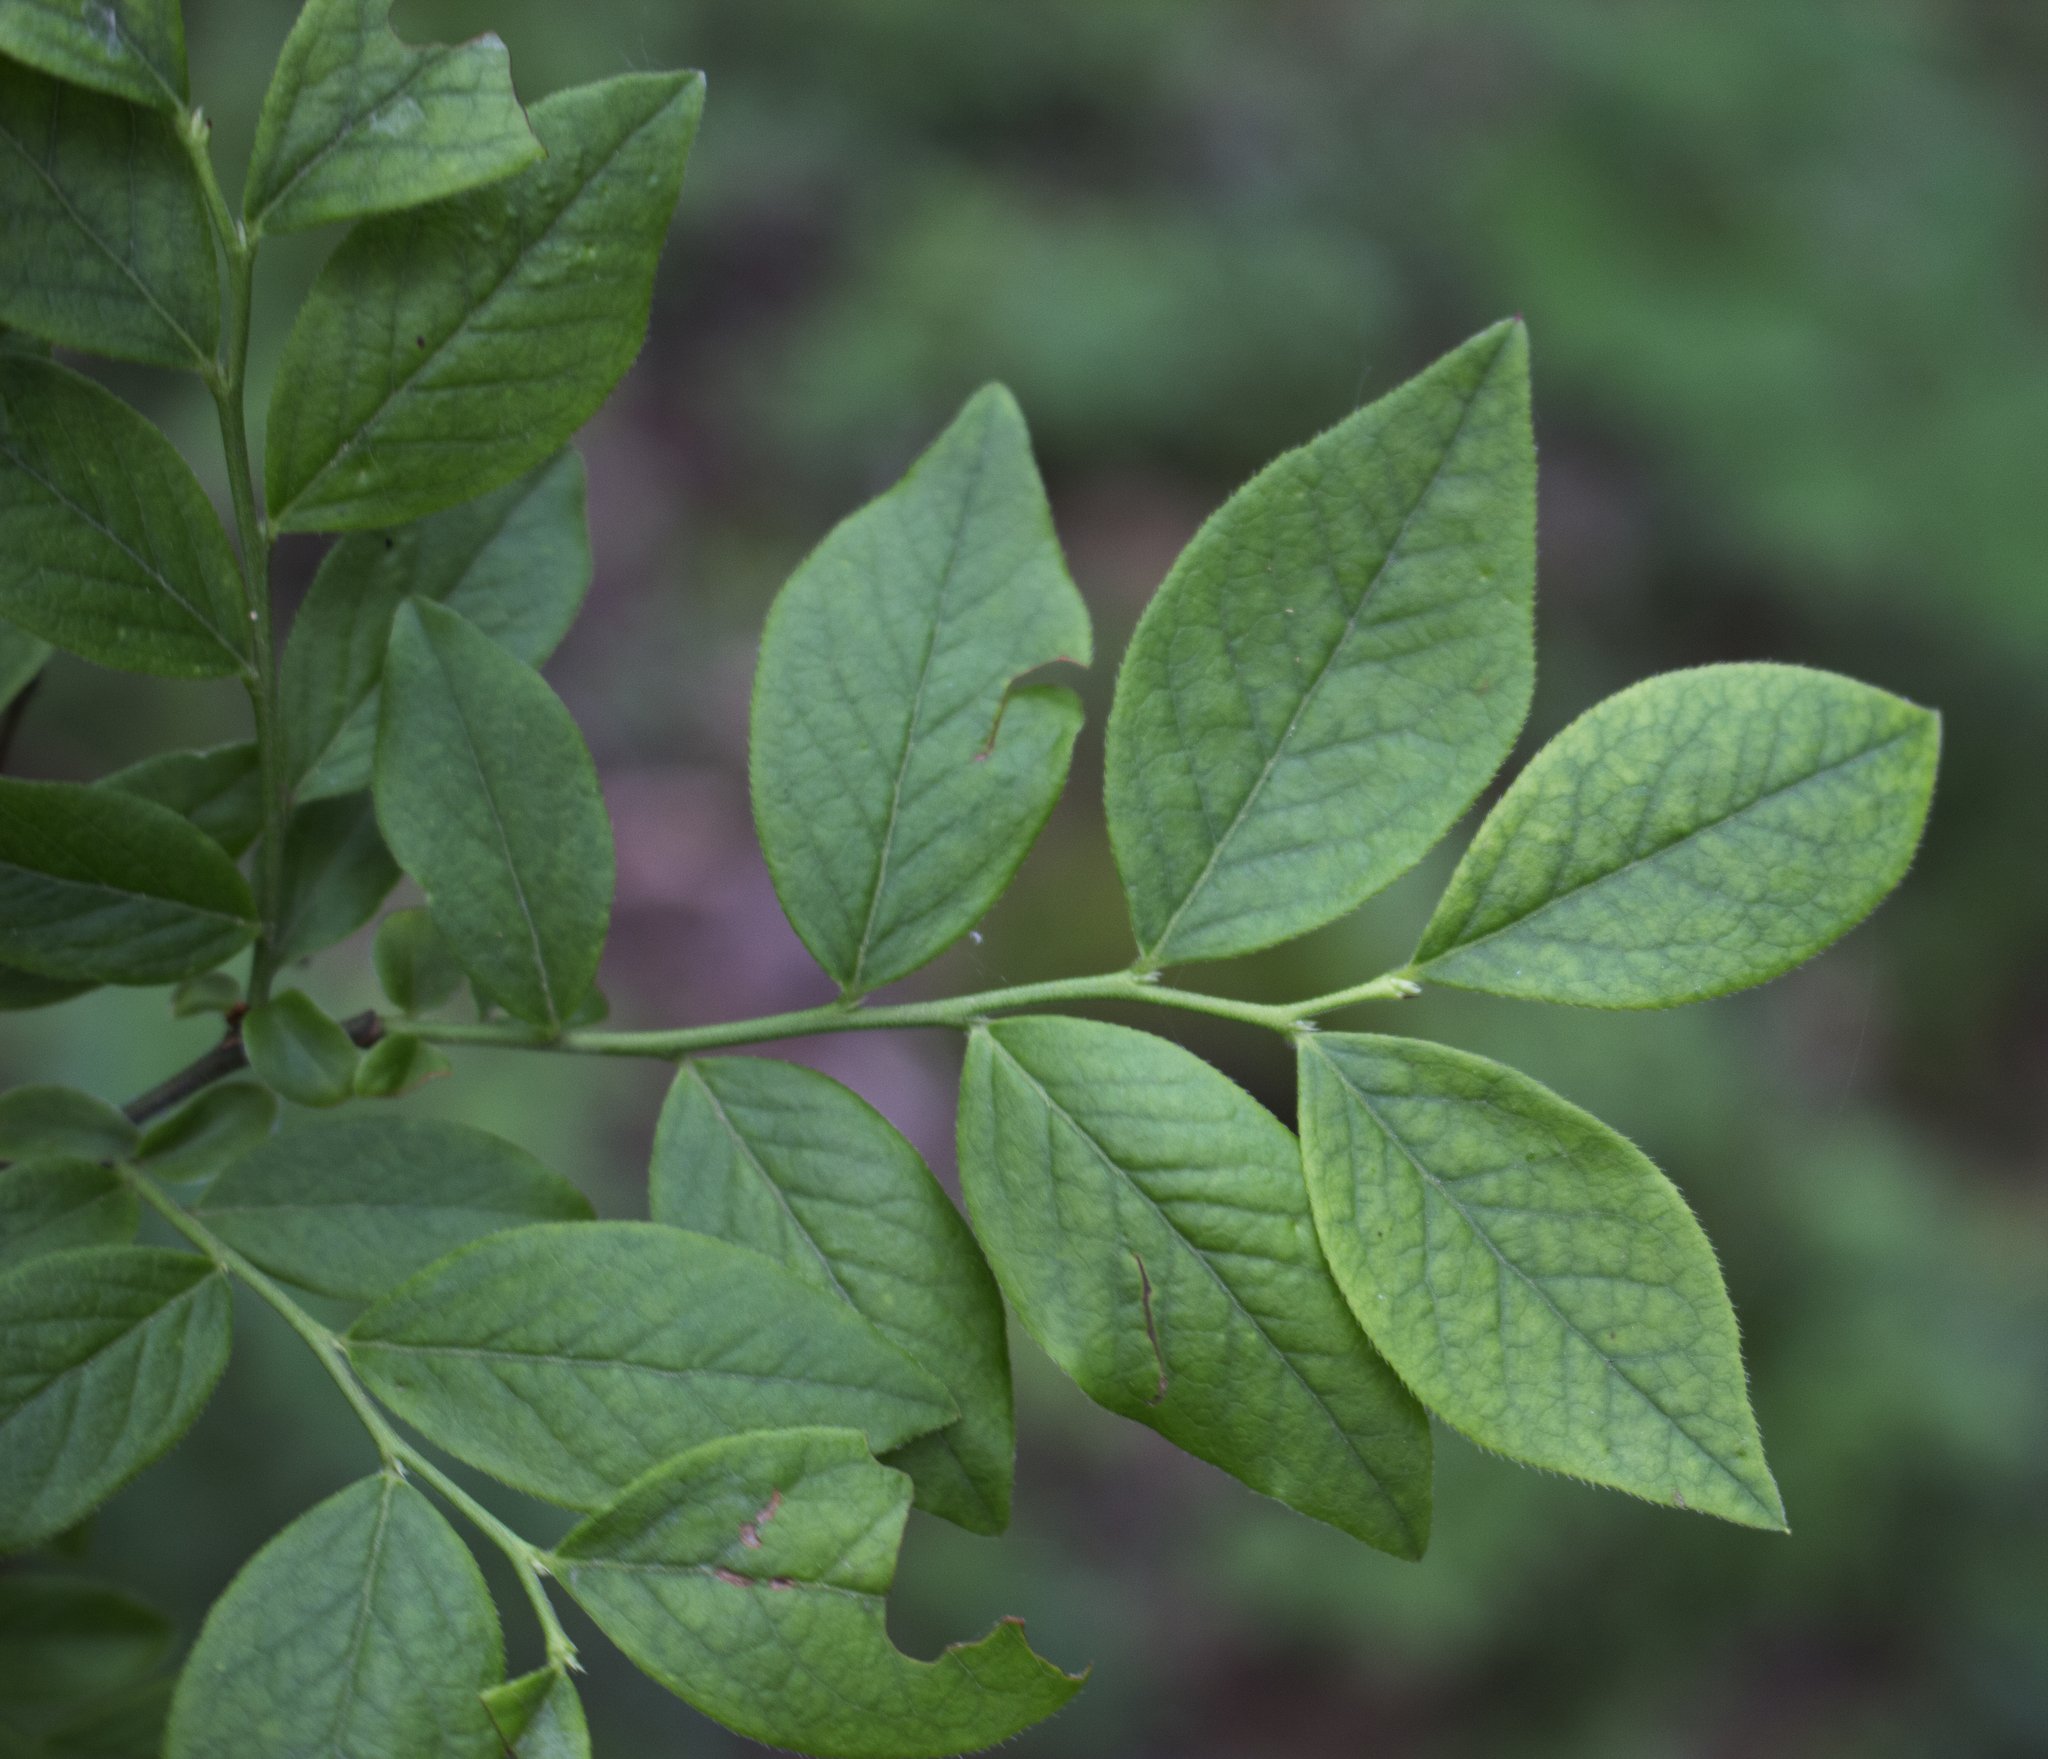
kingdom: Plantae
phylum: Tracheophyta
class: Magnoliopsida
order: Ericales
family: Ericaceae
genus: Vaccinium
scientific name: Vaccinium angustifolium
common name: Early lowbush blueberry
